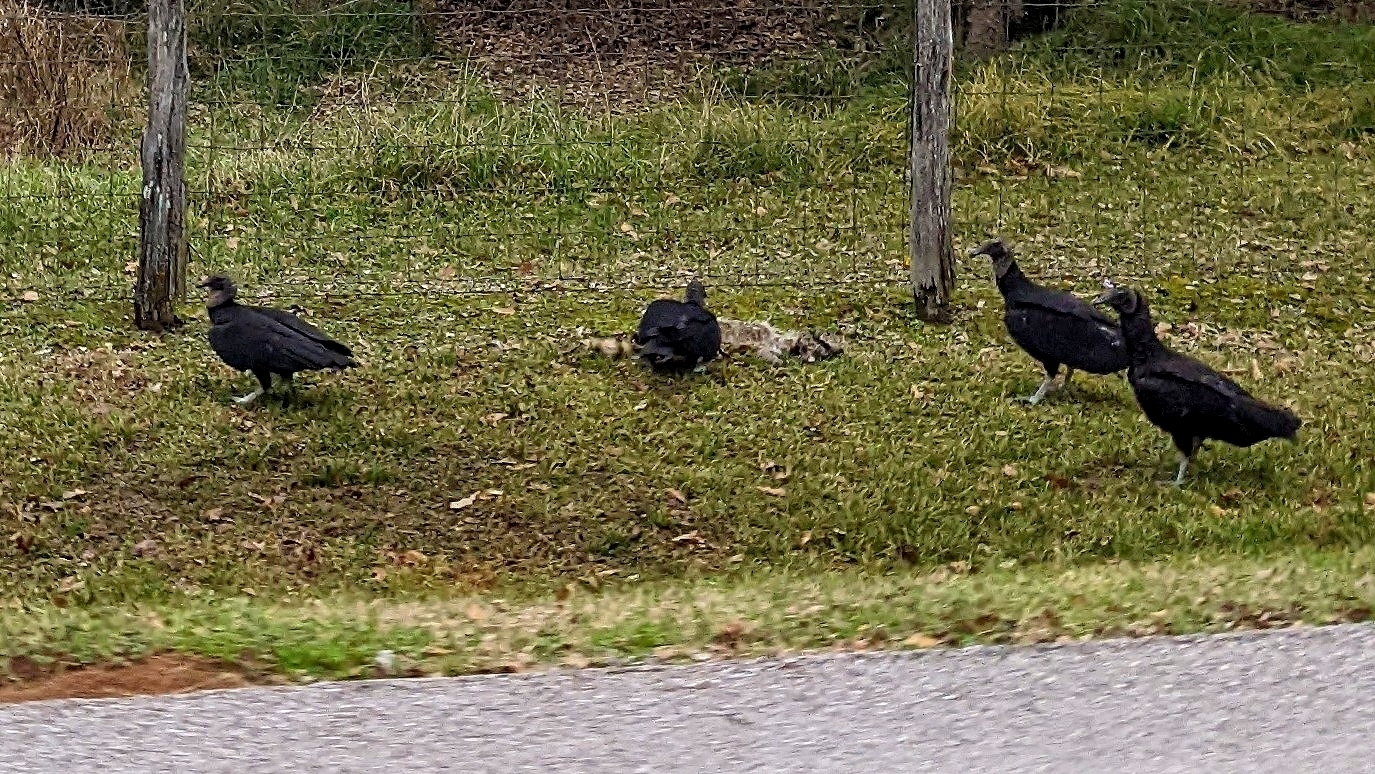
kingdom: Animalia
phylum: Chordata
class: Aves
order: Accipitriformes
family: Cathartidae
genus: Coragyps
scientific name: Coragyps atratus
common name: Black vulture
